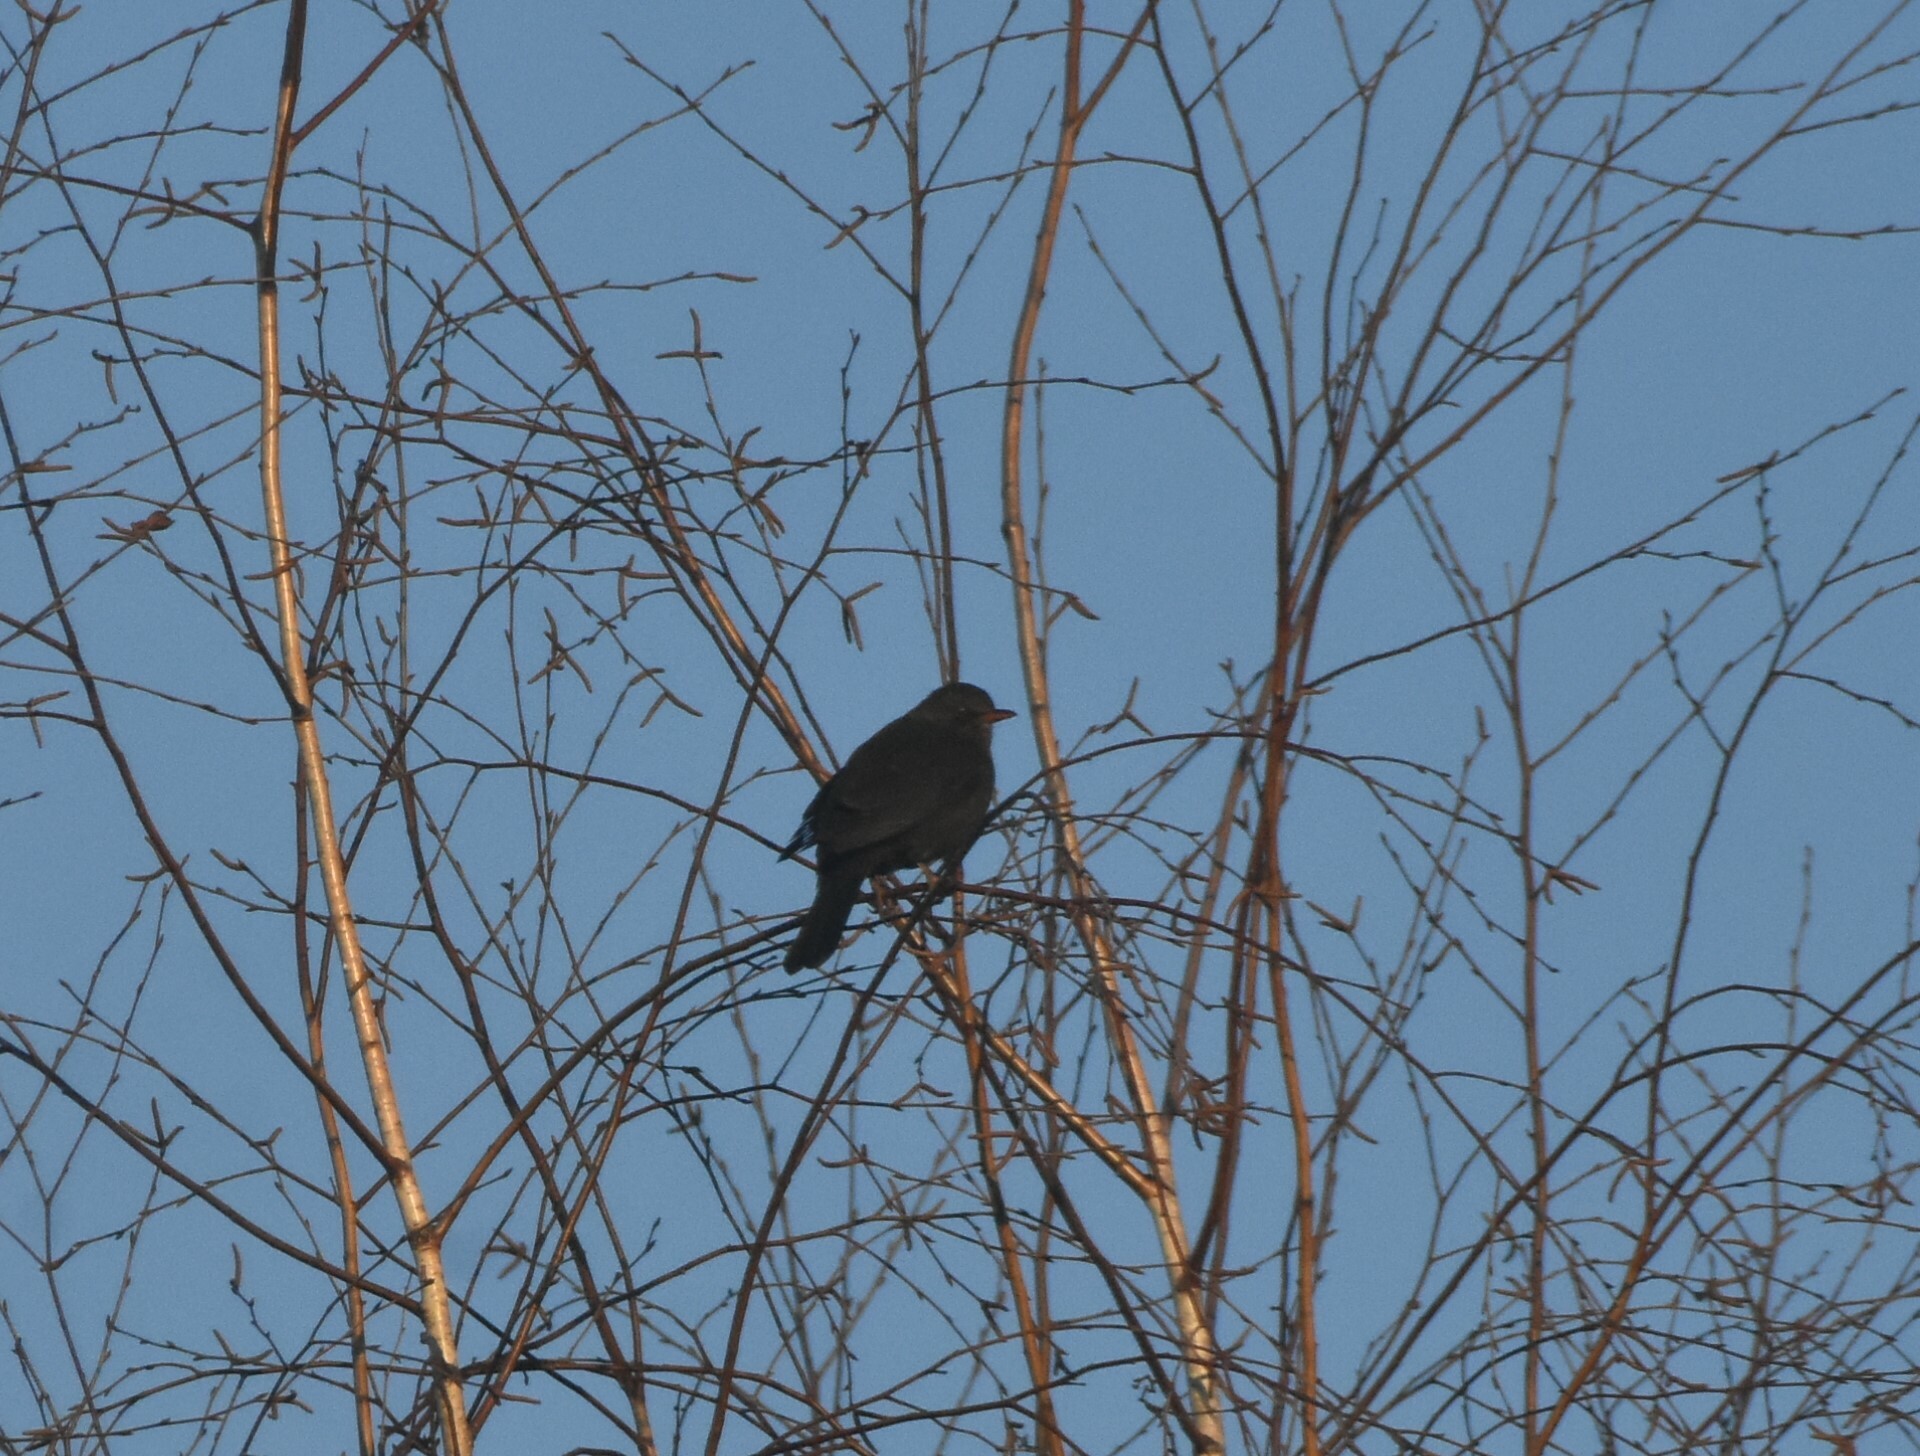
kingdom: Animalia
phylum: Chordata
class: Aves
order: Passeriformes
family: Turdidae
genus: Turdus
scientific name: Turdus merula
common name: Common blackbird
